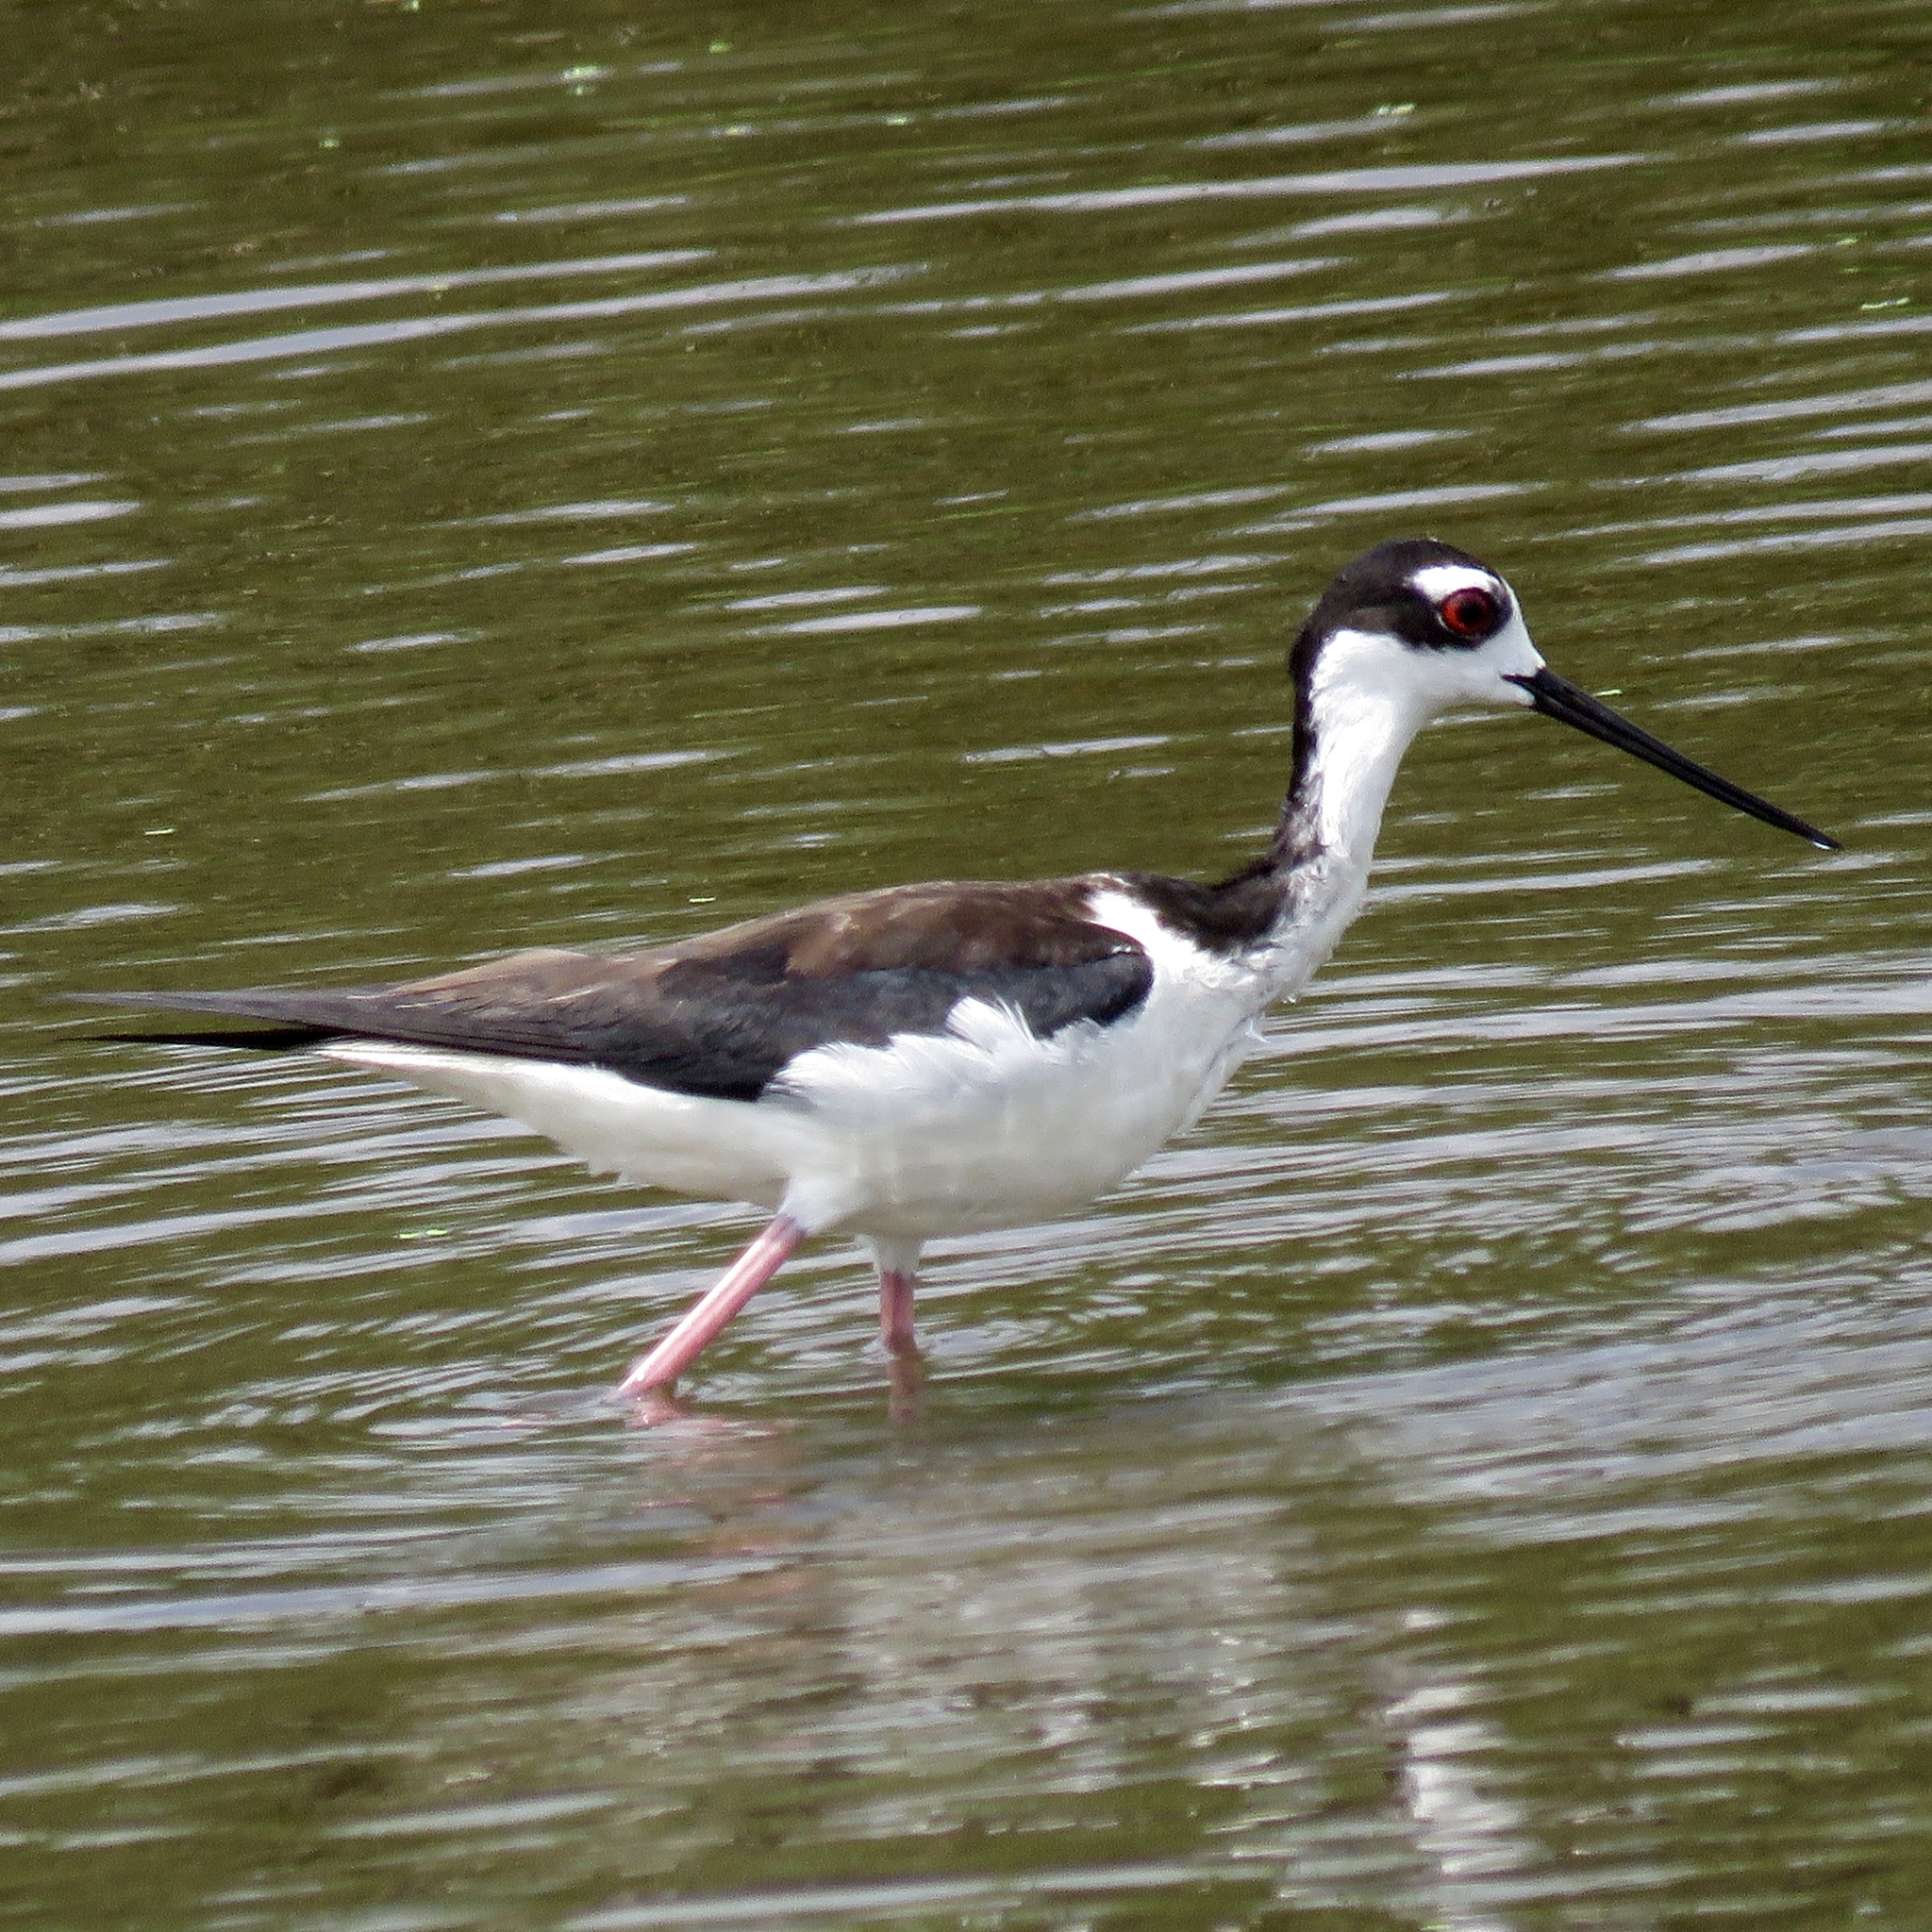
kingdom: Animalia
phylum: Chordata
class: Aves
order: Charadriiformes
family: Recurvirostridae
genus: Himantopus
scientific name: Himantopus mexicanus
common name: Black-necked stilt
